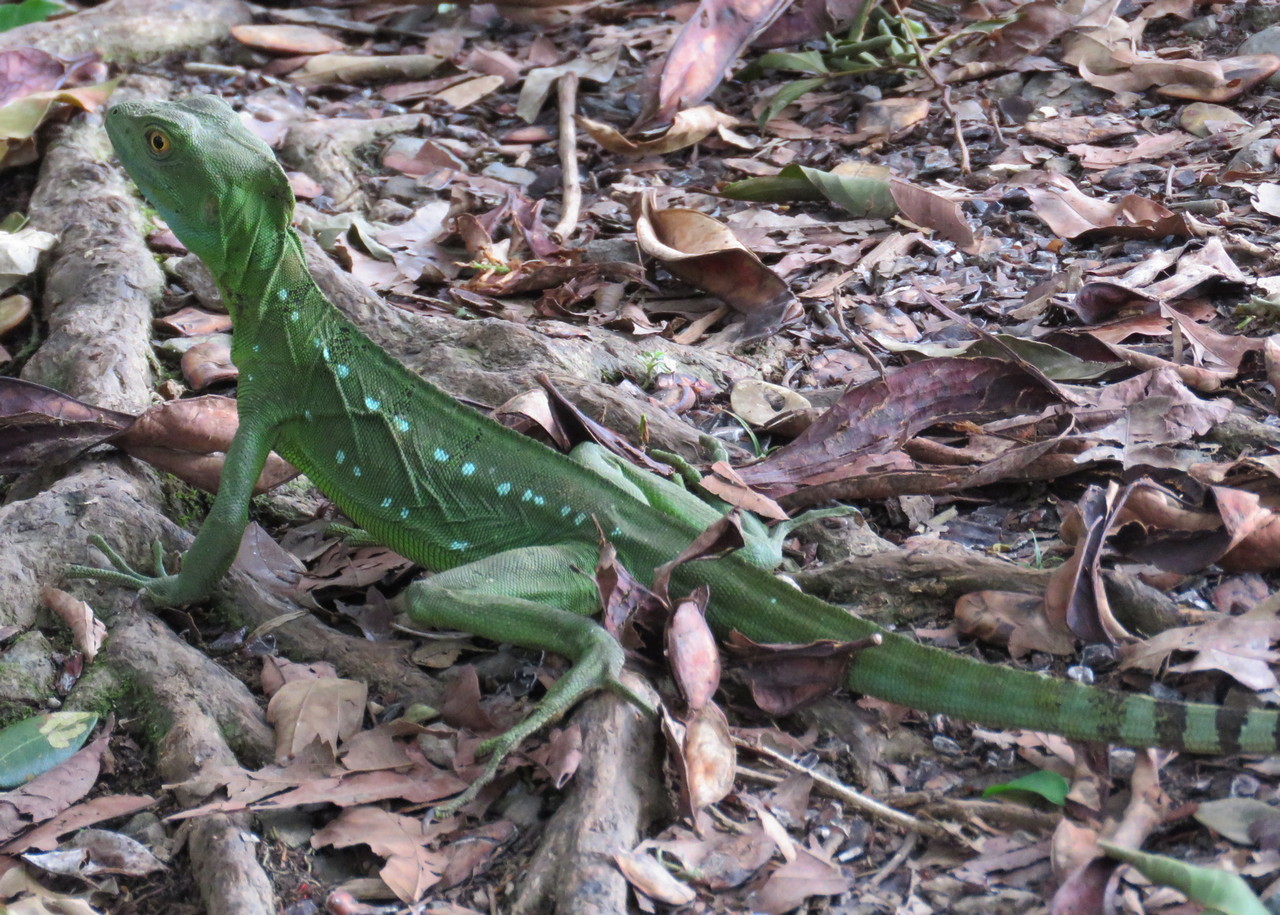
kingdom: Animalia
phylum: Chordata
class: Squamata
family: Corytophanidae
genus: Basiliscus
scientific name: Basiliscus plumifrons
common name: Green basilisk
